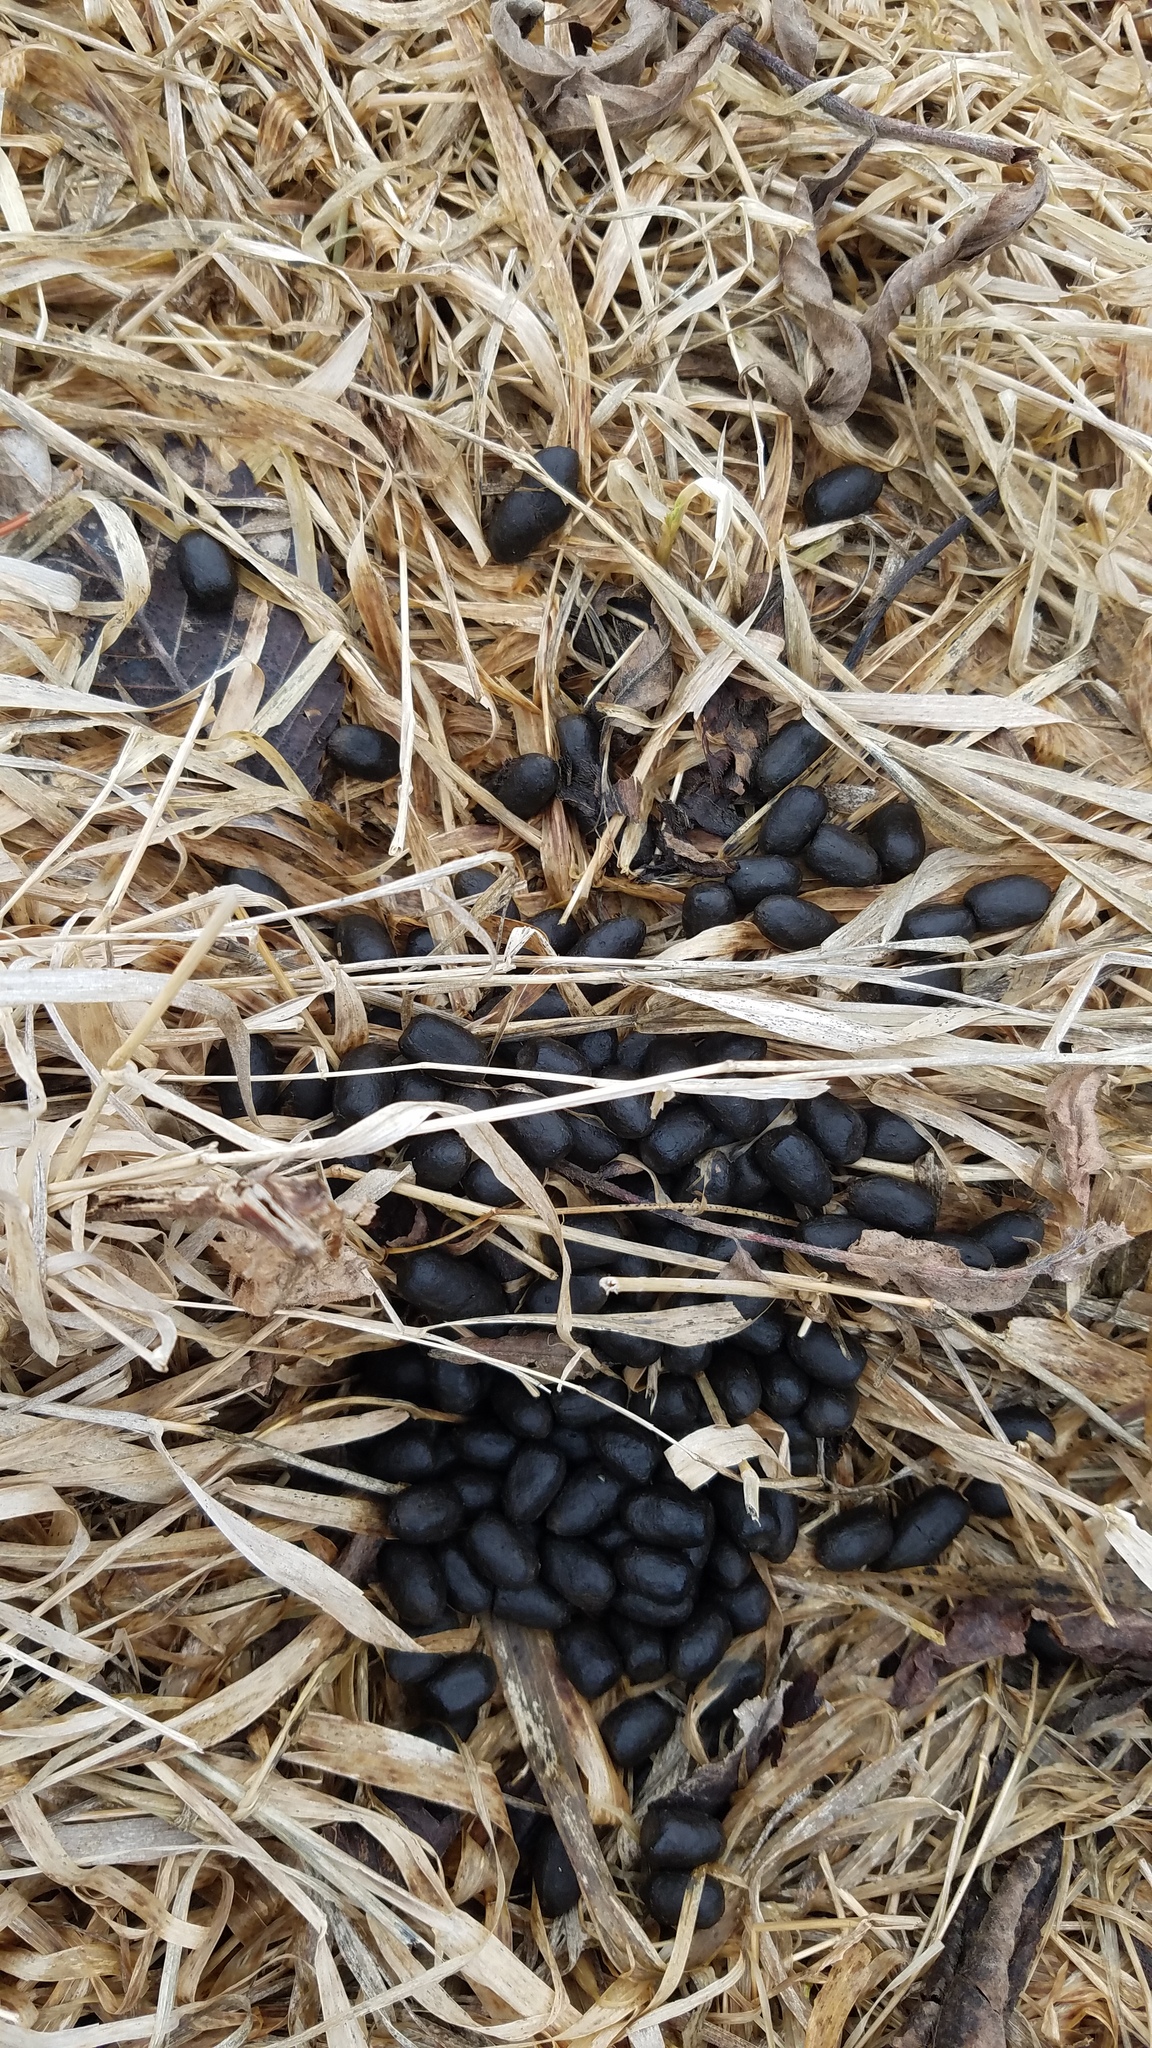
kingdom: Animalia
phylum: Chordata
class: Mammalia
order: Artiodactyla
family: Cervidae
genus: Odocoileus
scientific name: Odocoileus virginianus
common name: White-tailed deer
